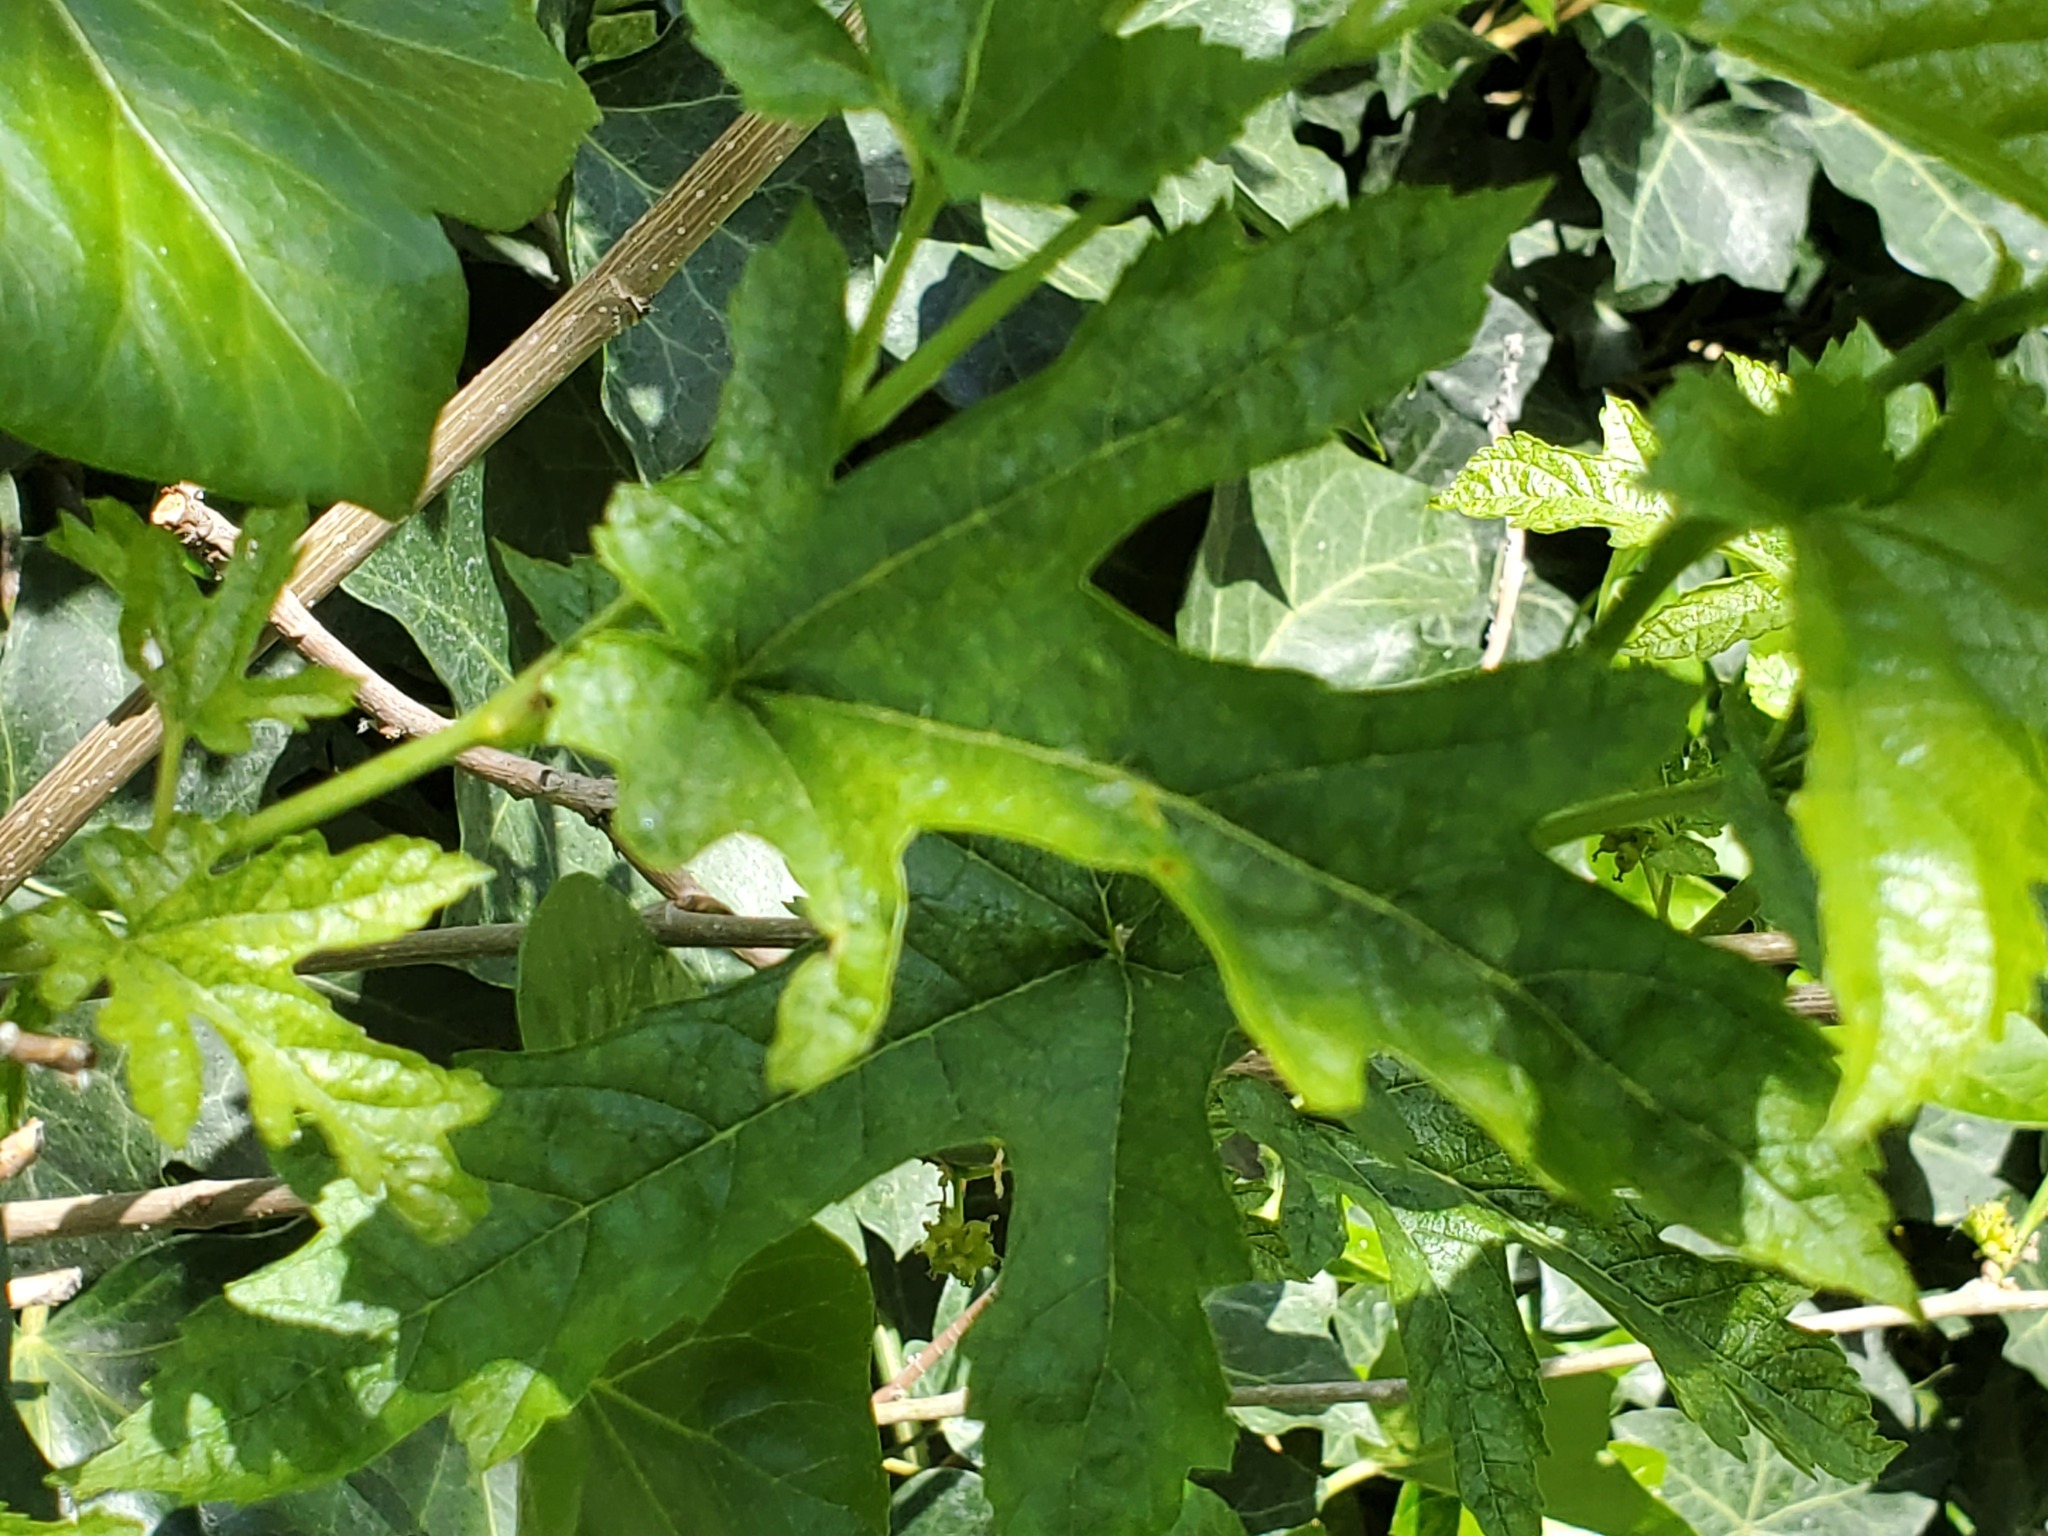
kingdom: Plantae
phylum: Tracheophyta
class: Magnoliopsida
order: Rosales
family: Moraceae
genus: Ficus
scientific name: Ficus carica
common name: Fig
